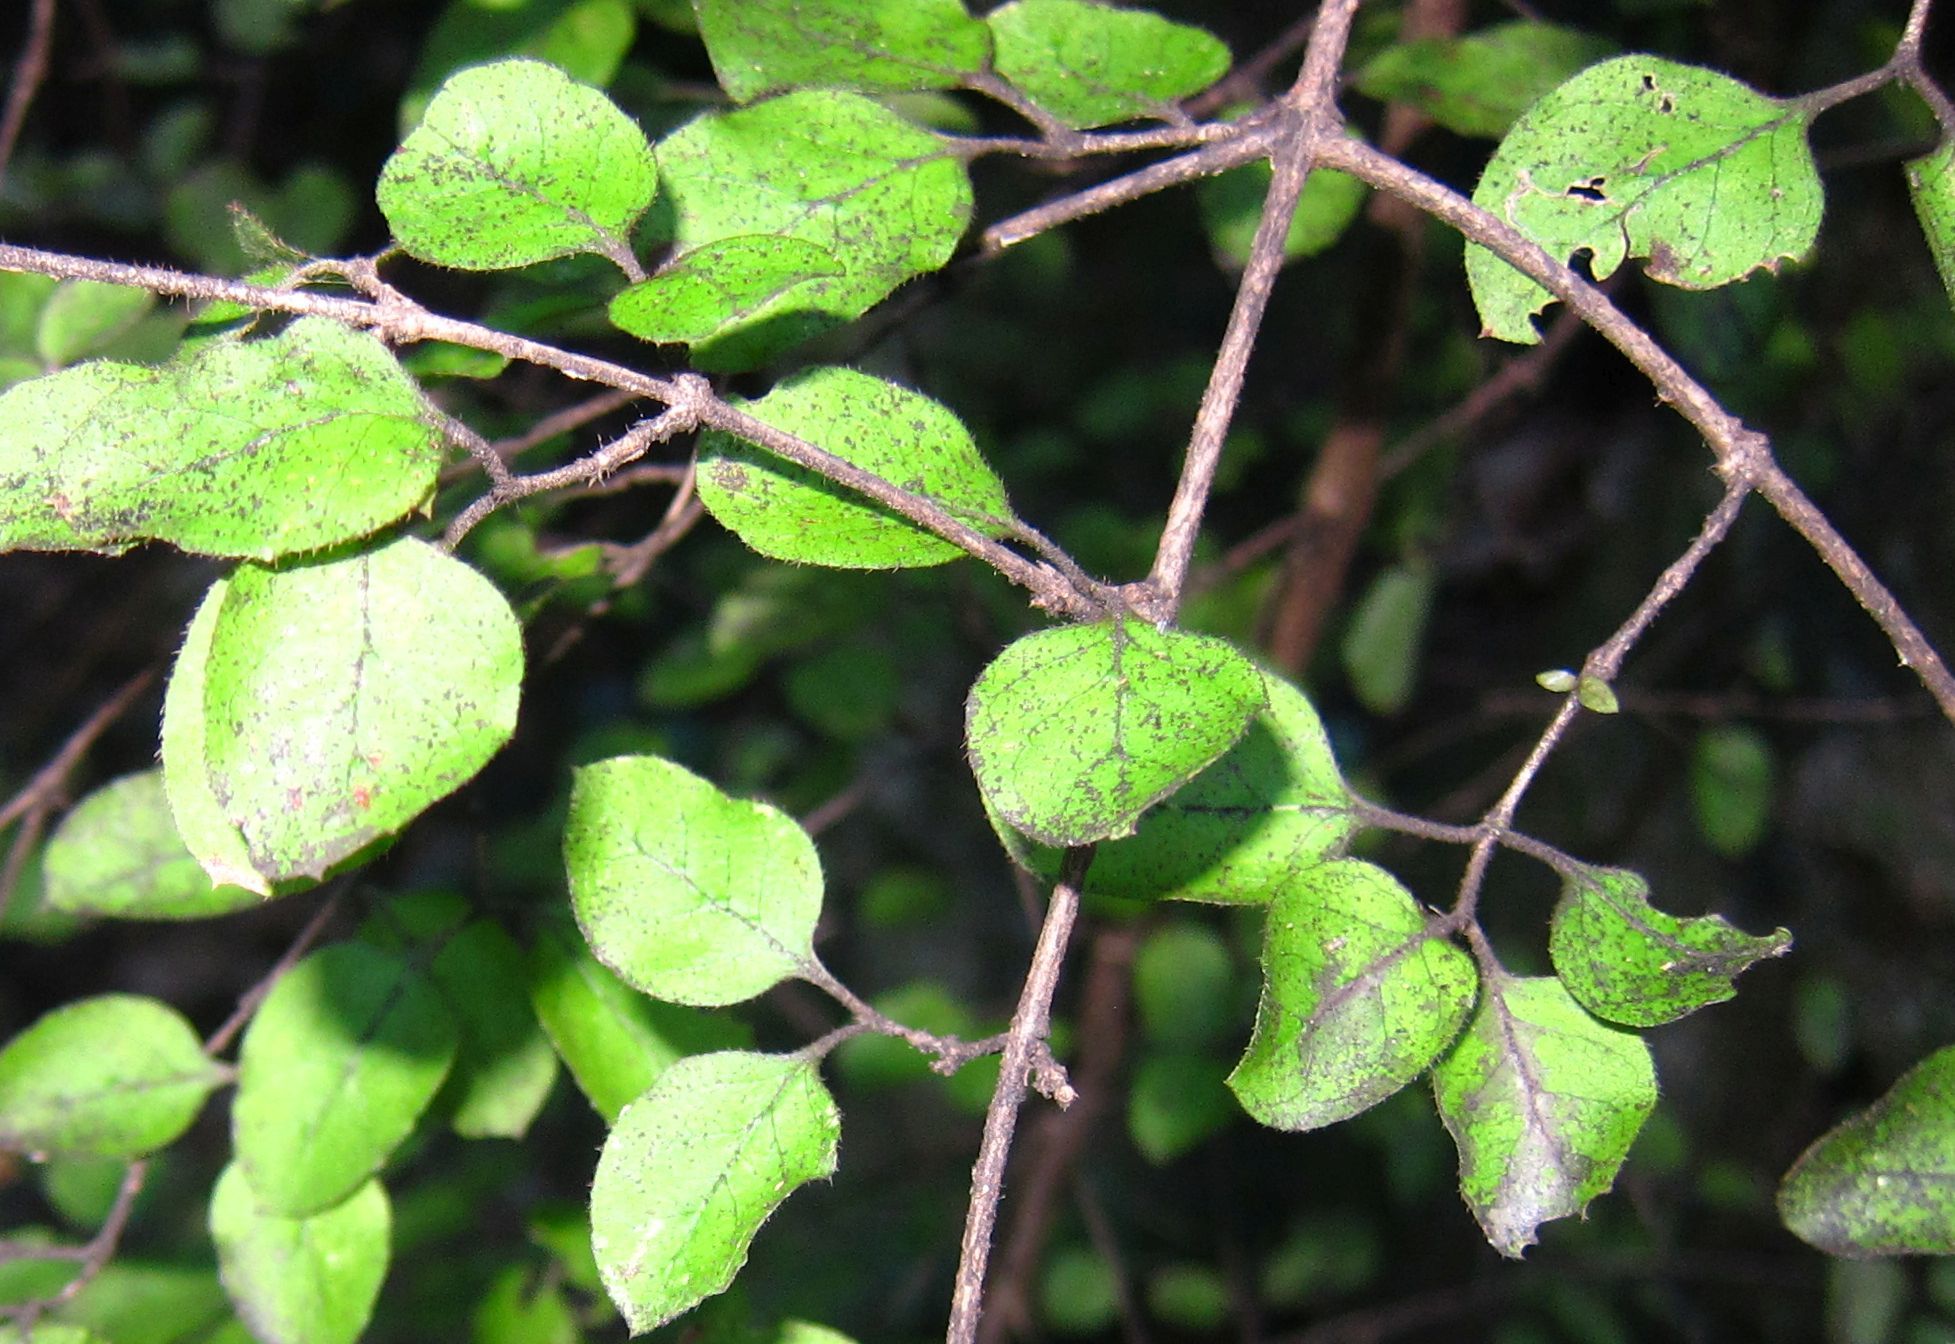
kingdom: Plantae
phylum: Tracheophyta
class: Magnoliopsida
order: Gentianales
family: Rubiaceae
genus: Coprosma
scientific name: Coprosma rotundifolia
